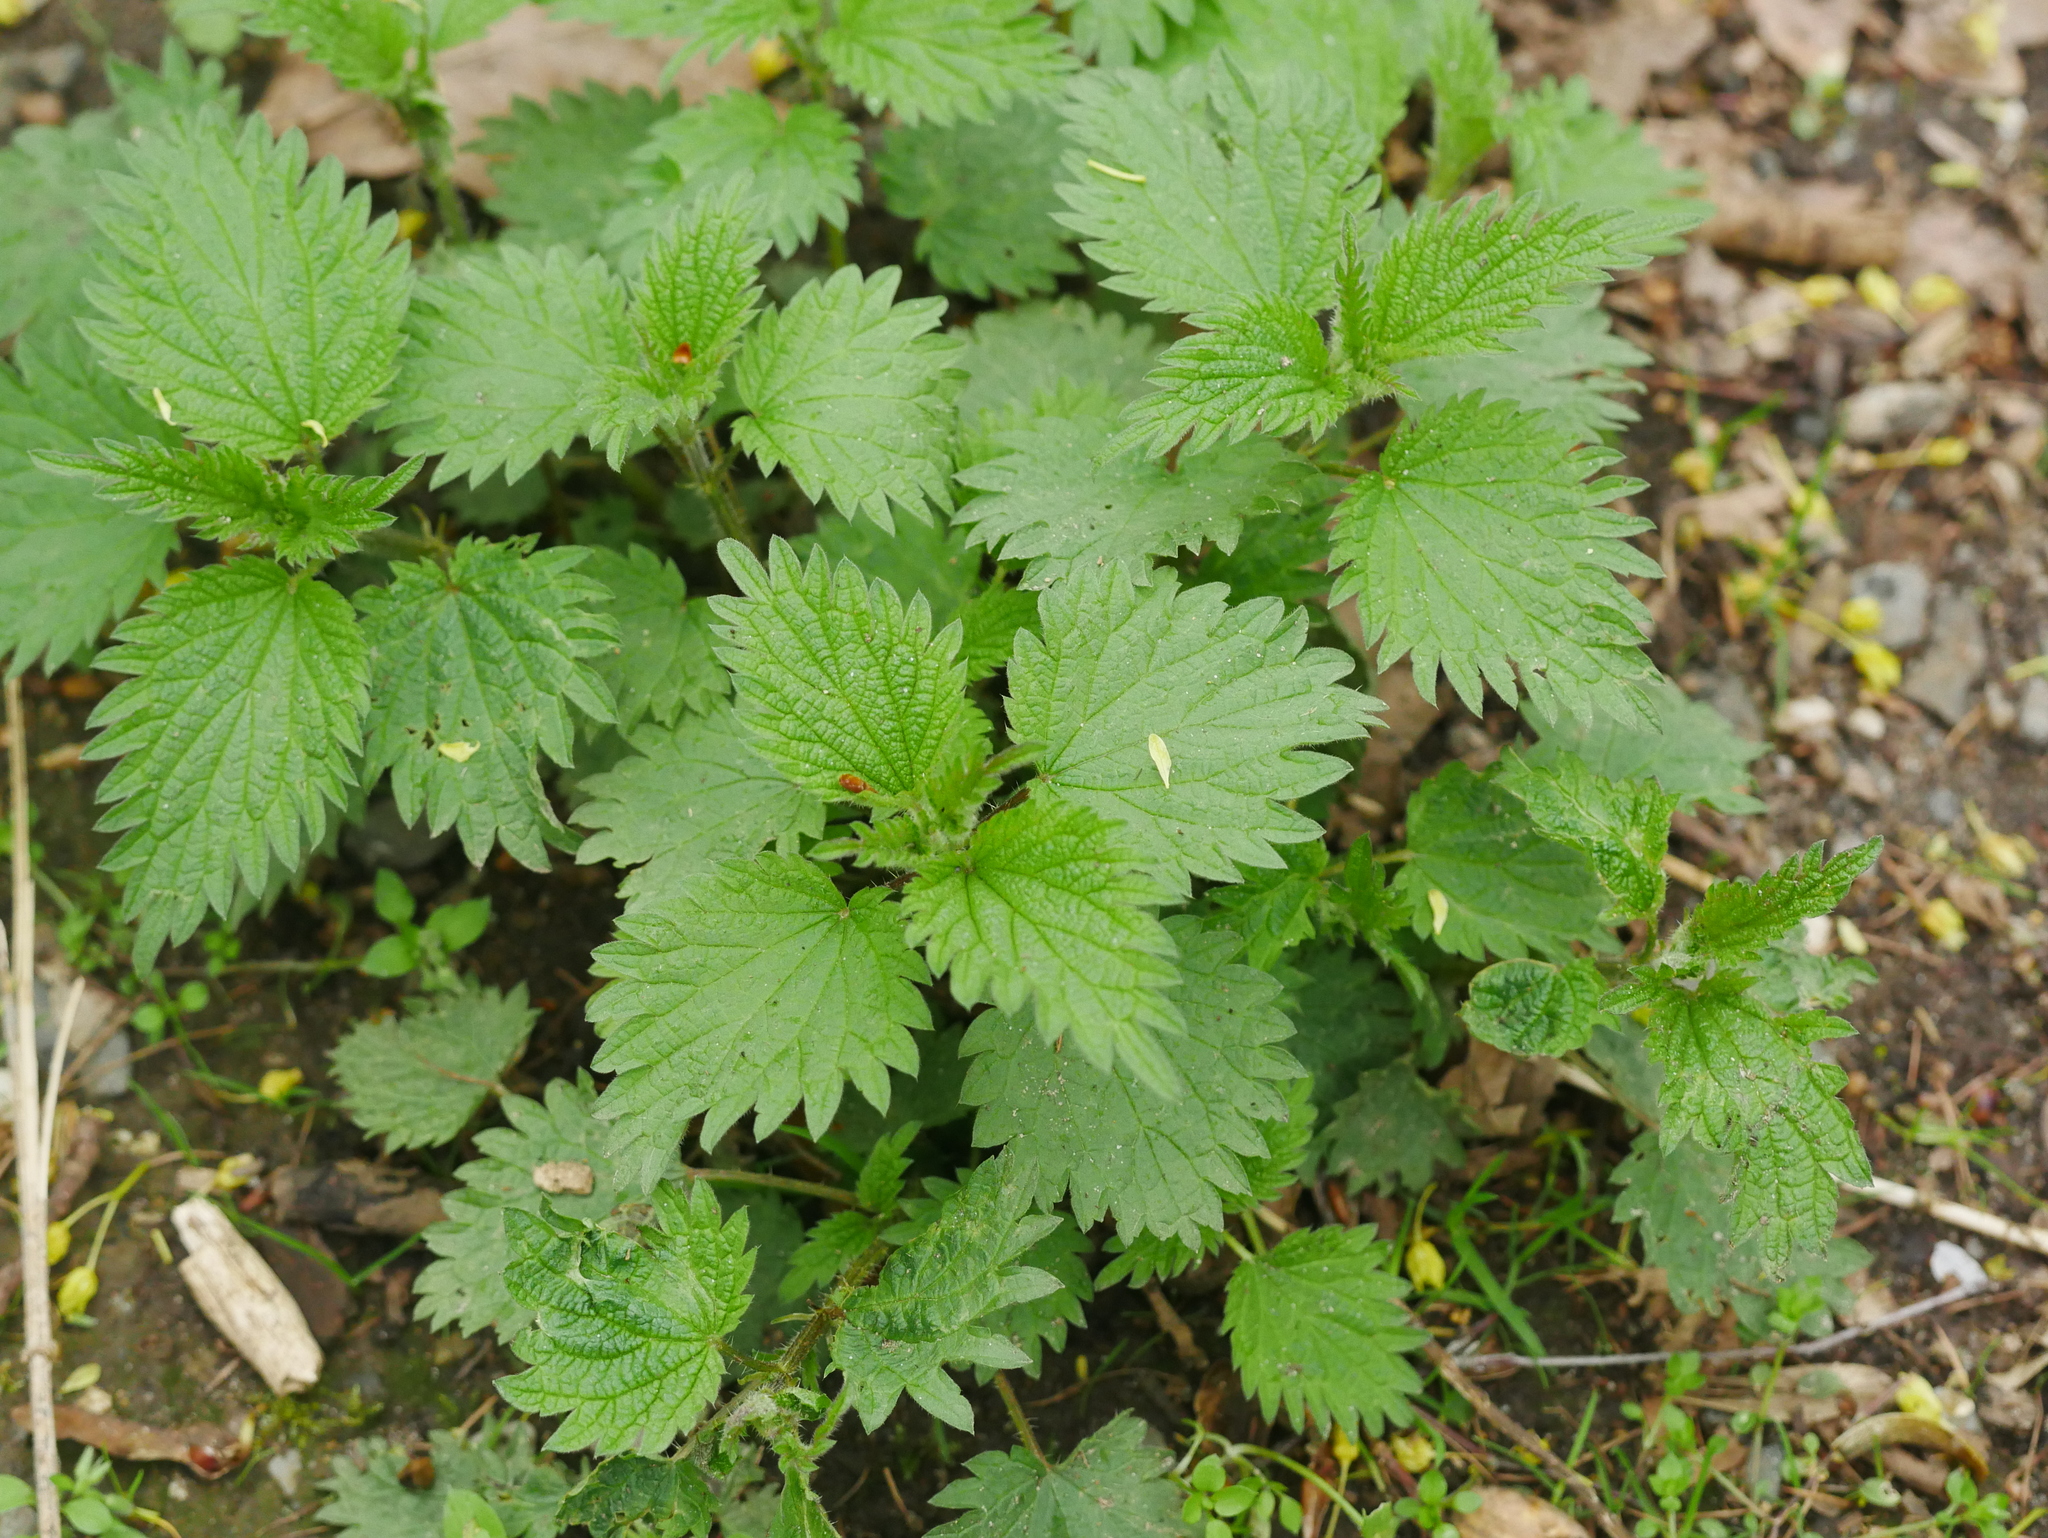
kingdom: Plantae
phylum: Tracheophyta
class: Magnoliopsida
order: Rosales
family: Urticaceae
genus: Urtica
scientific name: Urtica dioica
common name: Common nettle
